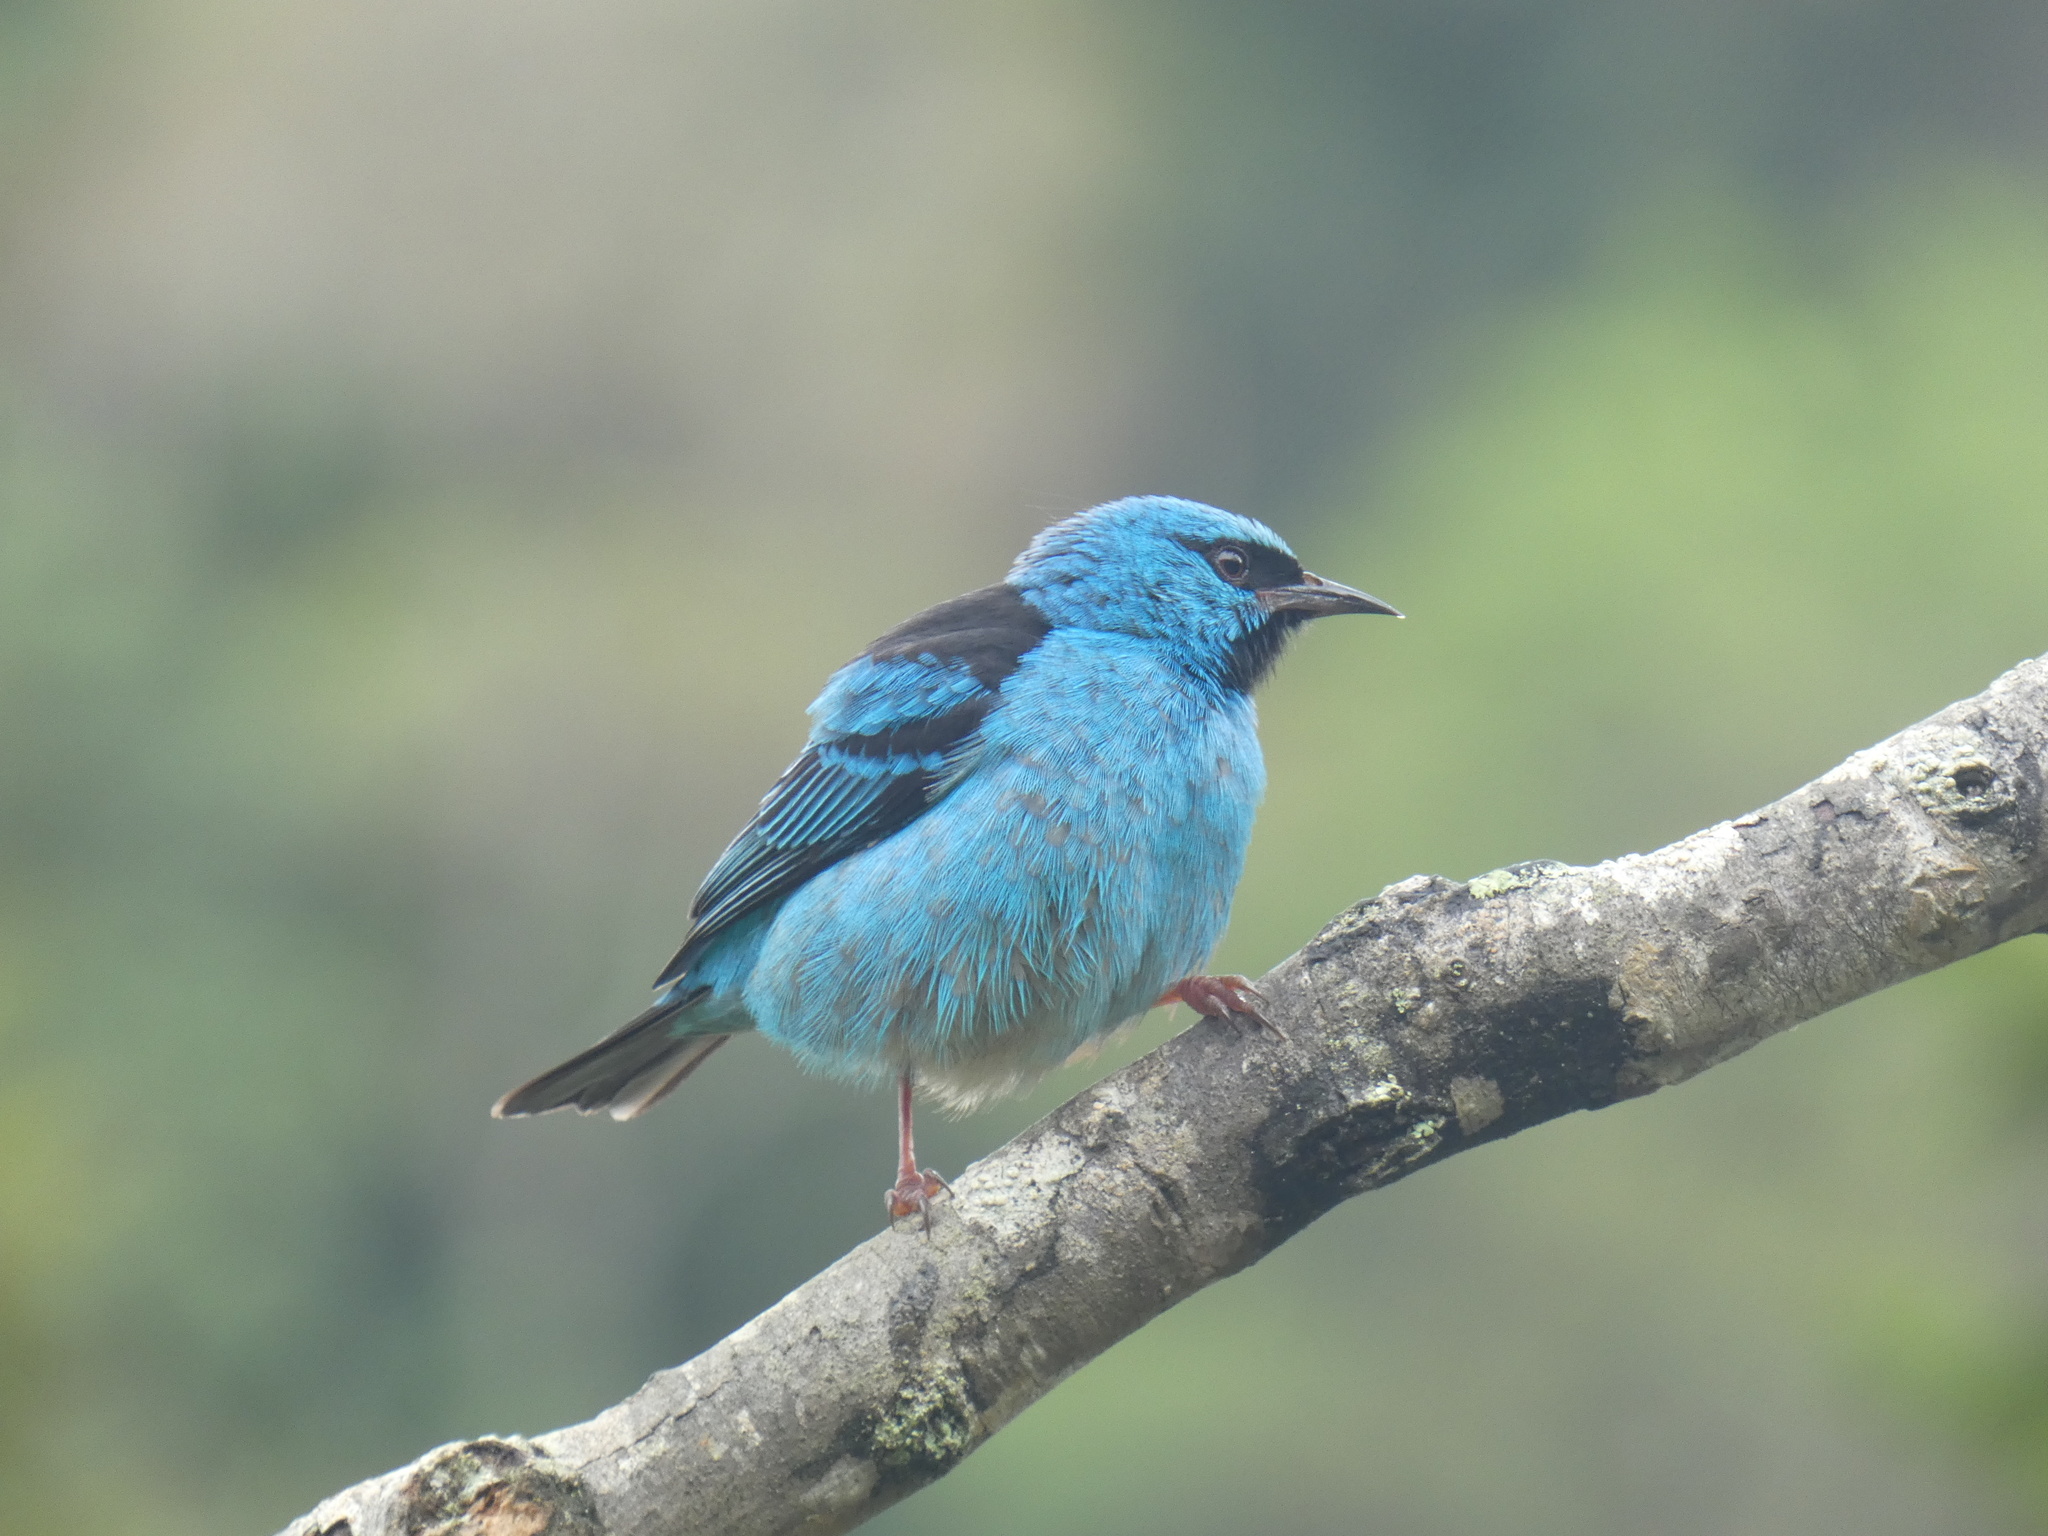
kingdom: Animalia
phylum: Chordata
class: Aves
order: Passeriformes
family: Thraupidae
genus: Dacnis
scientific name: Dacnis cayana
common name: Blue dacnis
